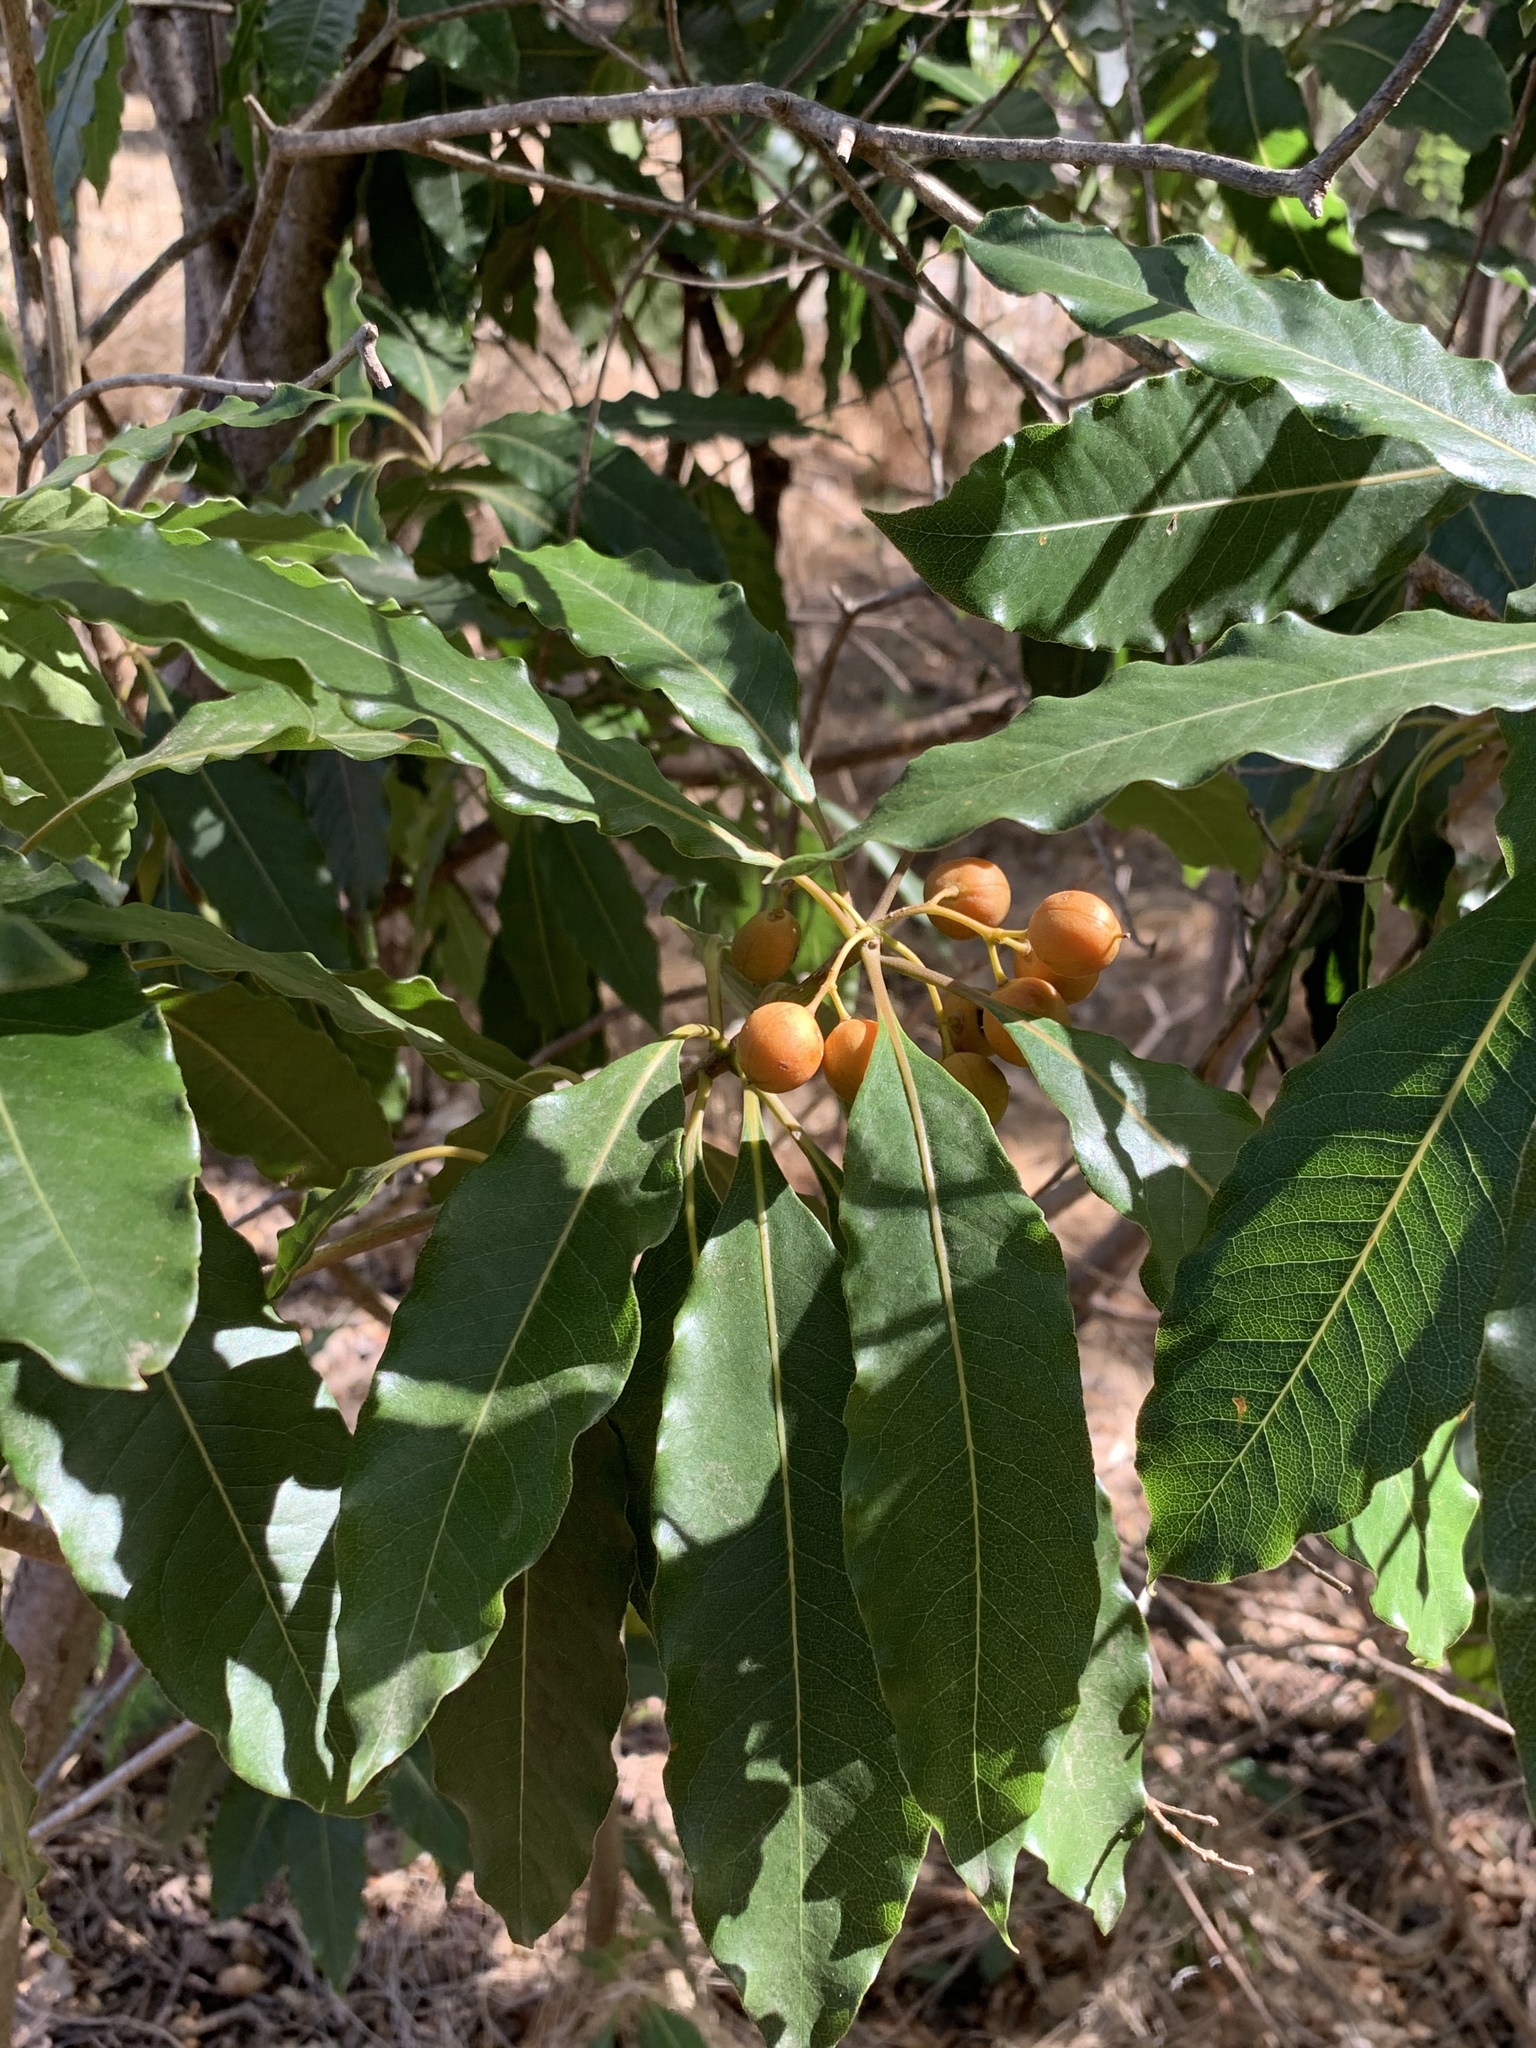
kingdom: Plantae
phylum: Tracheophyta
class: Magnoliopsida
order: Apiales
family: Pittosporaceae
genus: Pittosporum
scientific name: Pittosporum undulatum
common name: Australian cheesewood
